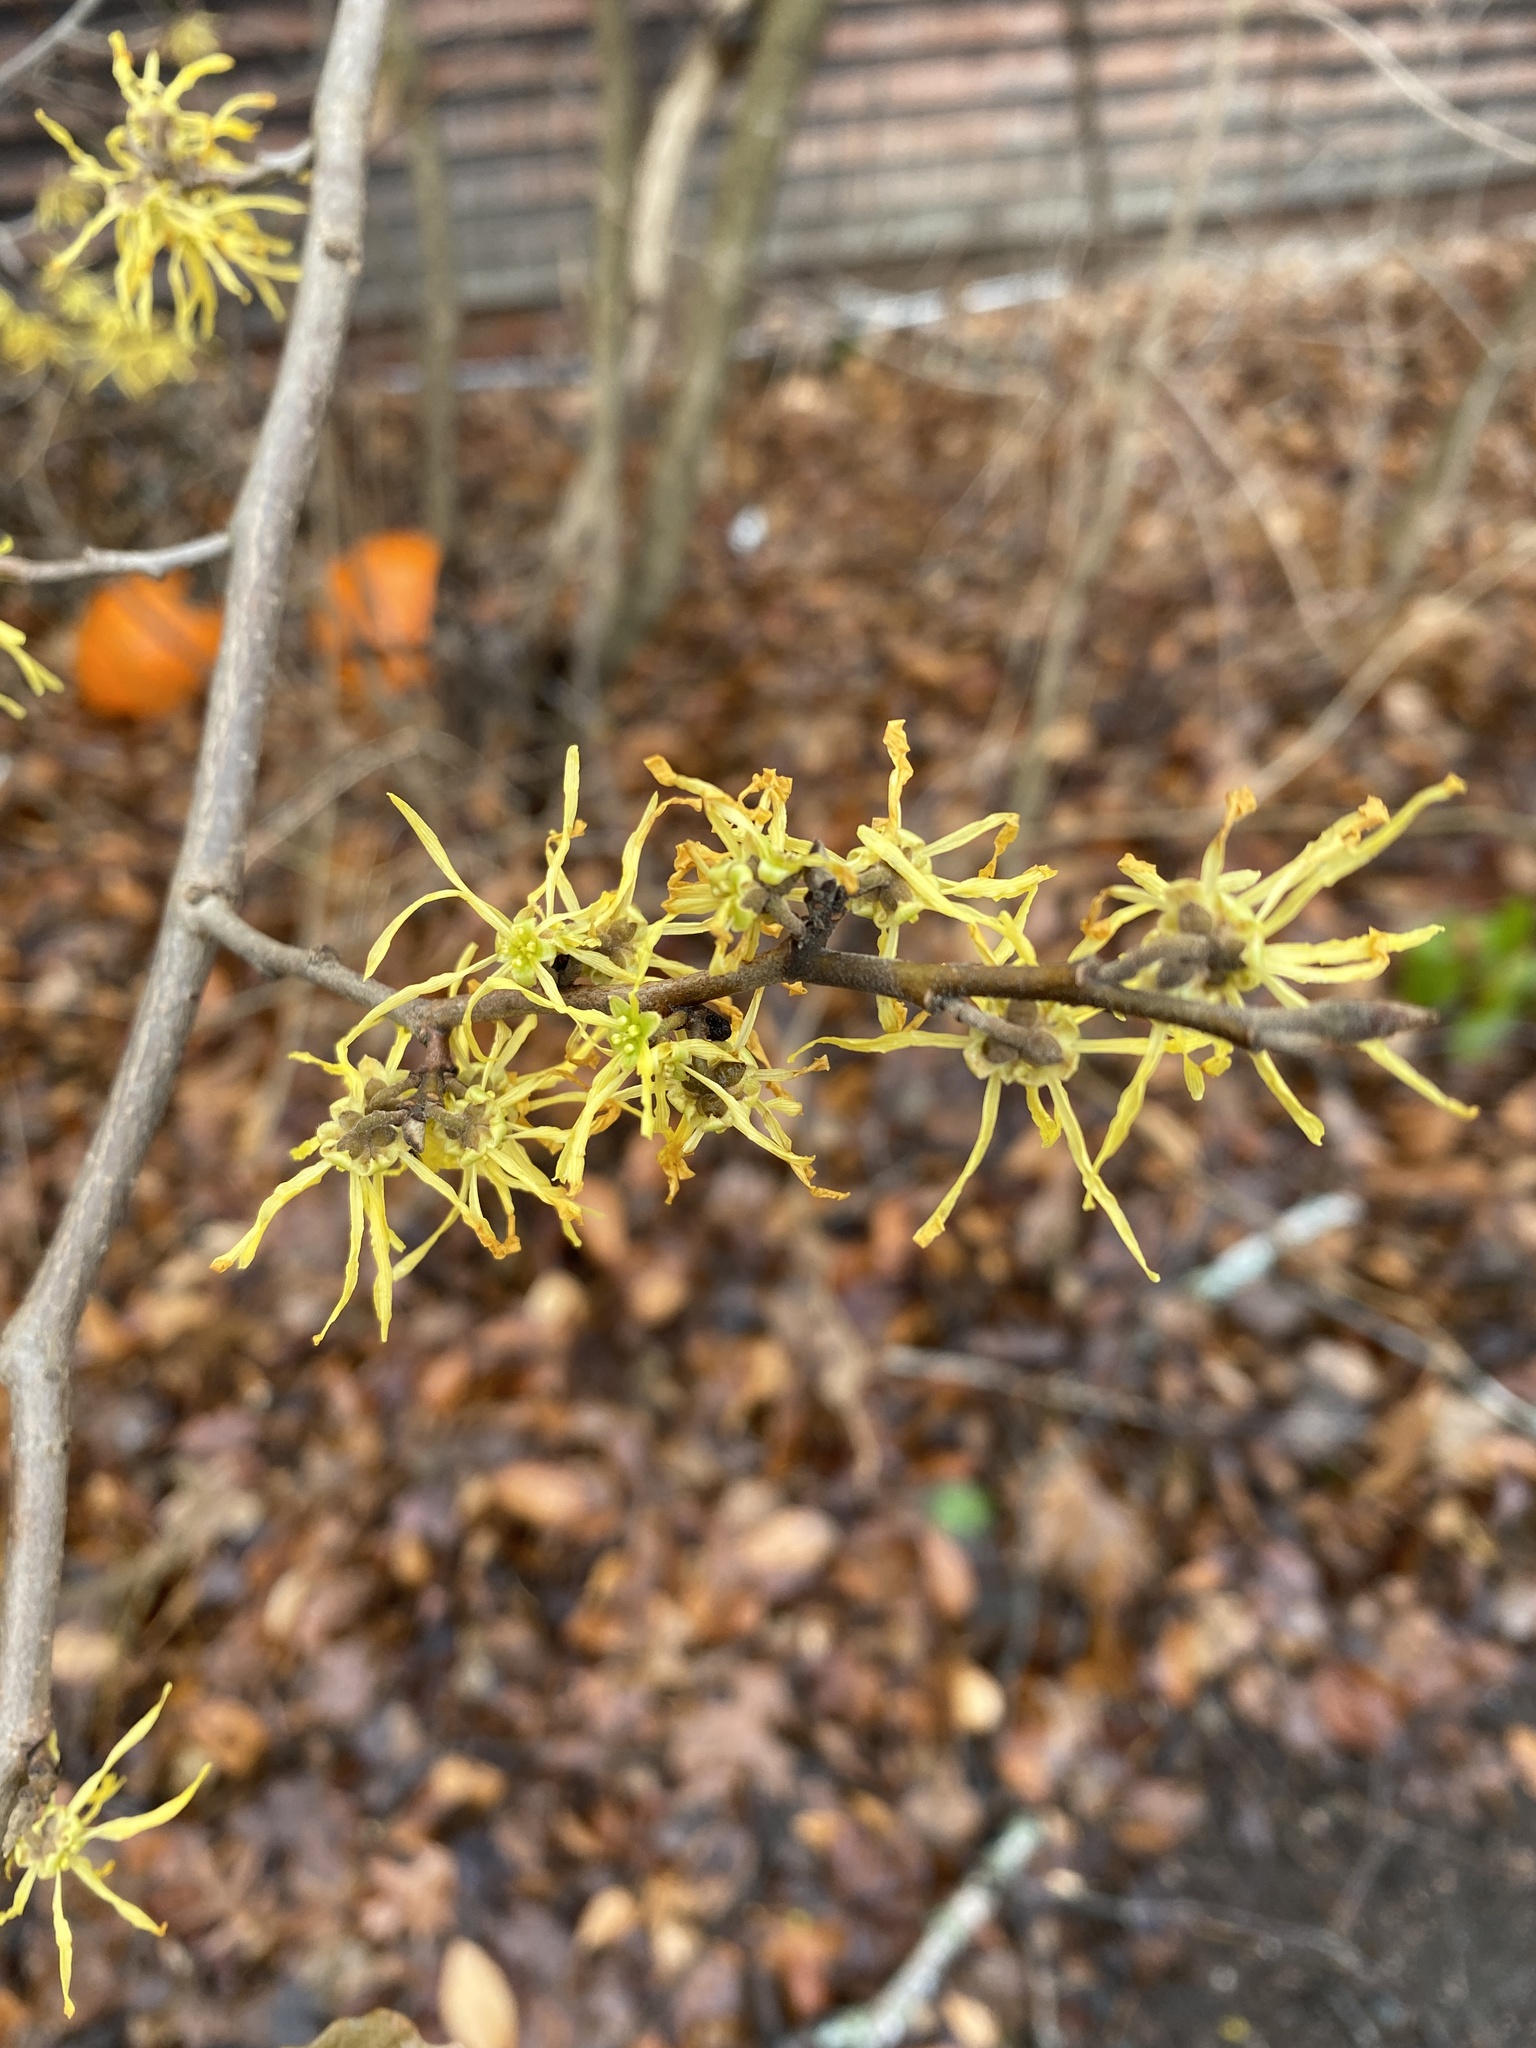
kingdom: Plantae
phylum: Tracheophyta
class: Magnoliopsida
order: Saxifragales
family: Hamamelidaceae
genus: Hamamelis
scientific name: Hamamelis virginiana
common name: Witch-hazel
